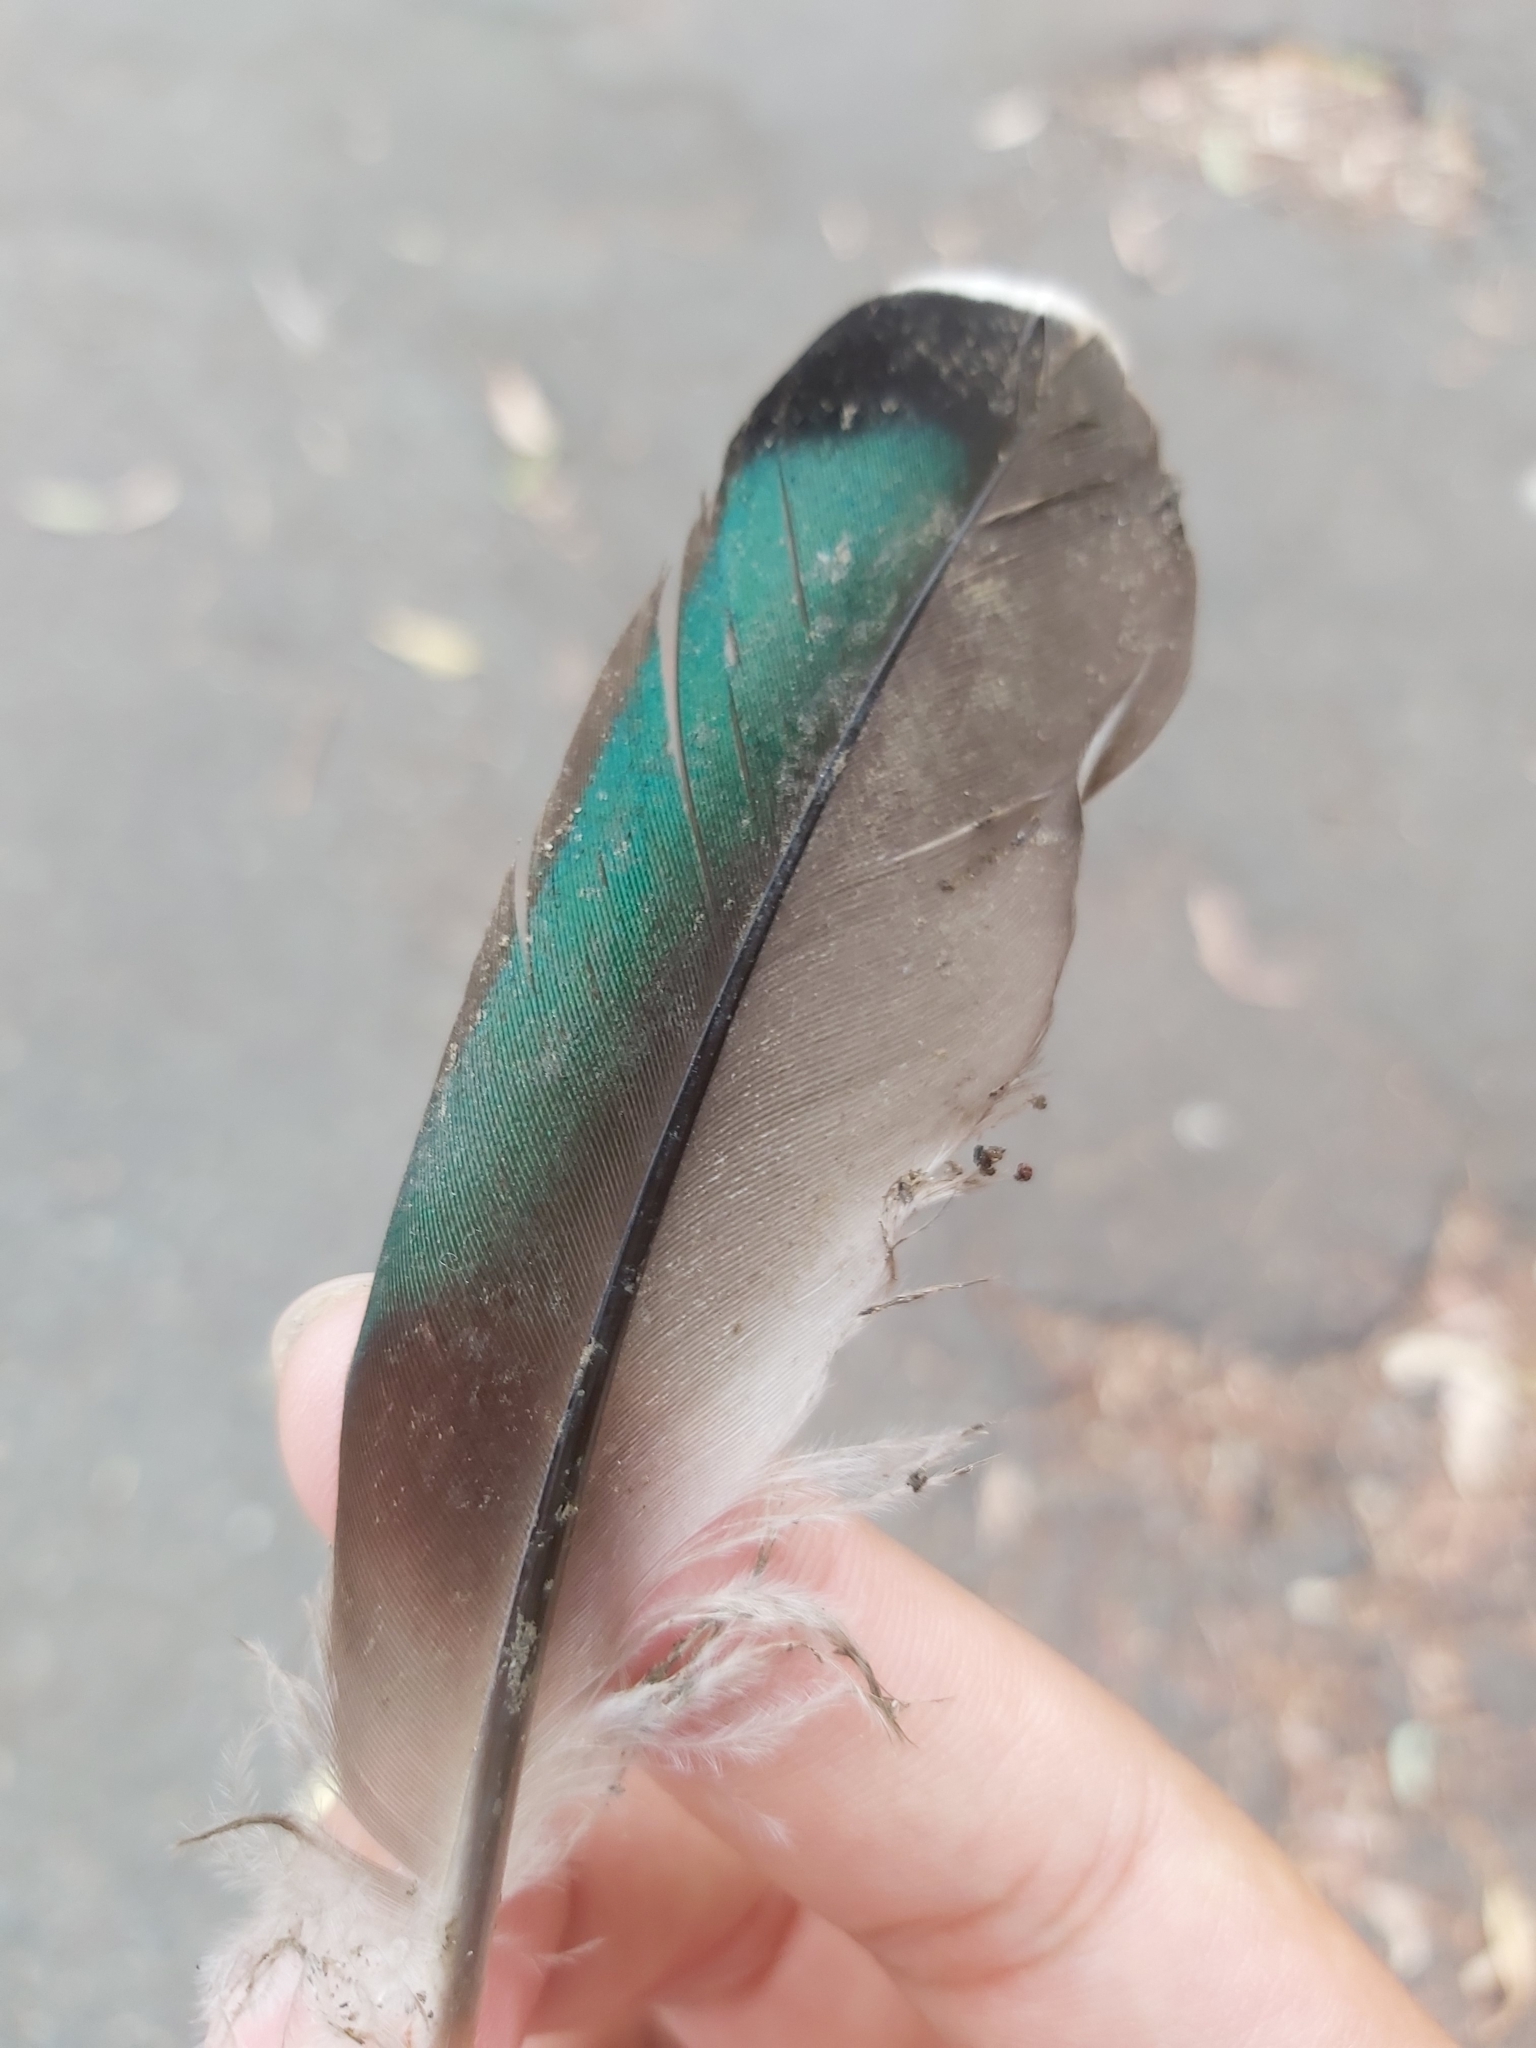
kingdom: Animalia
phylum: Chordata
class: Aves
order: Anseriformes
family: Anatidae
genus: Anas
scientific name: Anas superciliosa
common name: Pacific black duck
